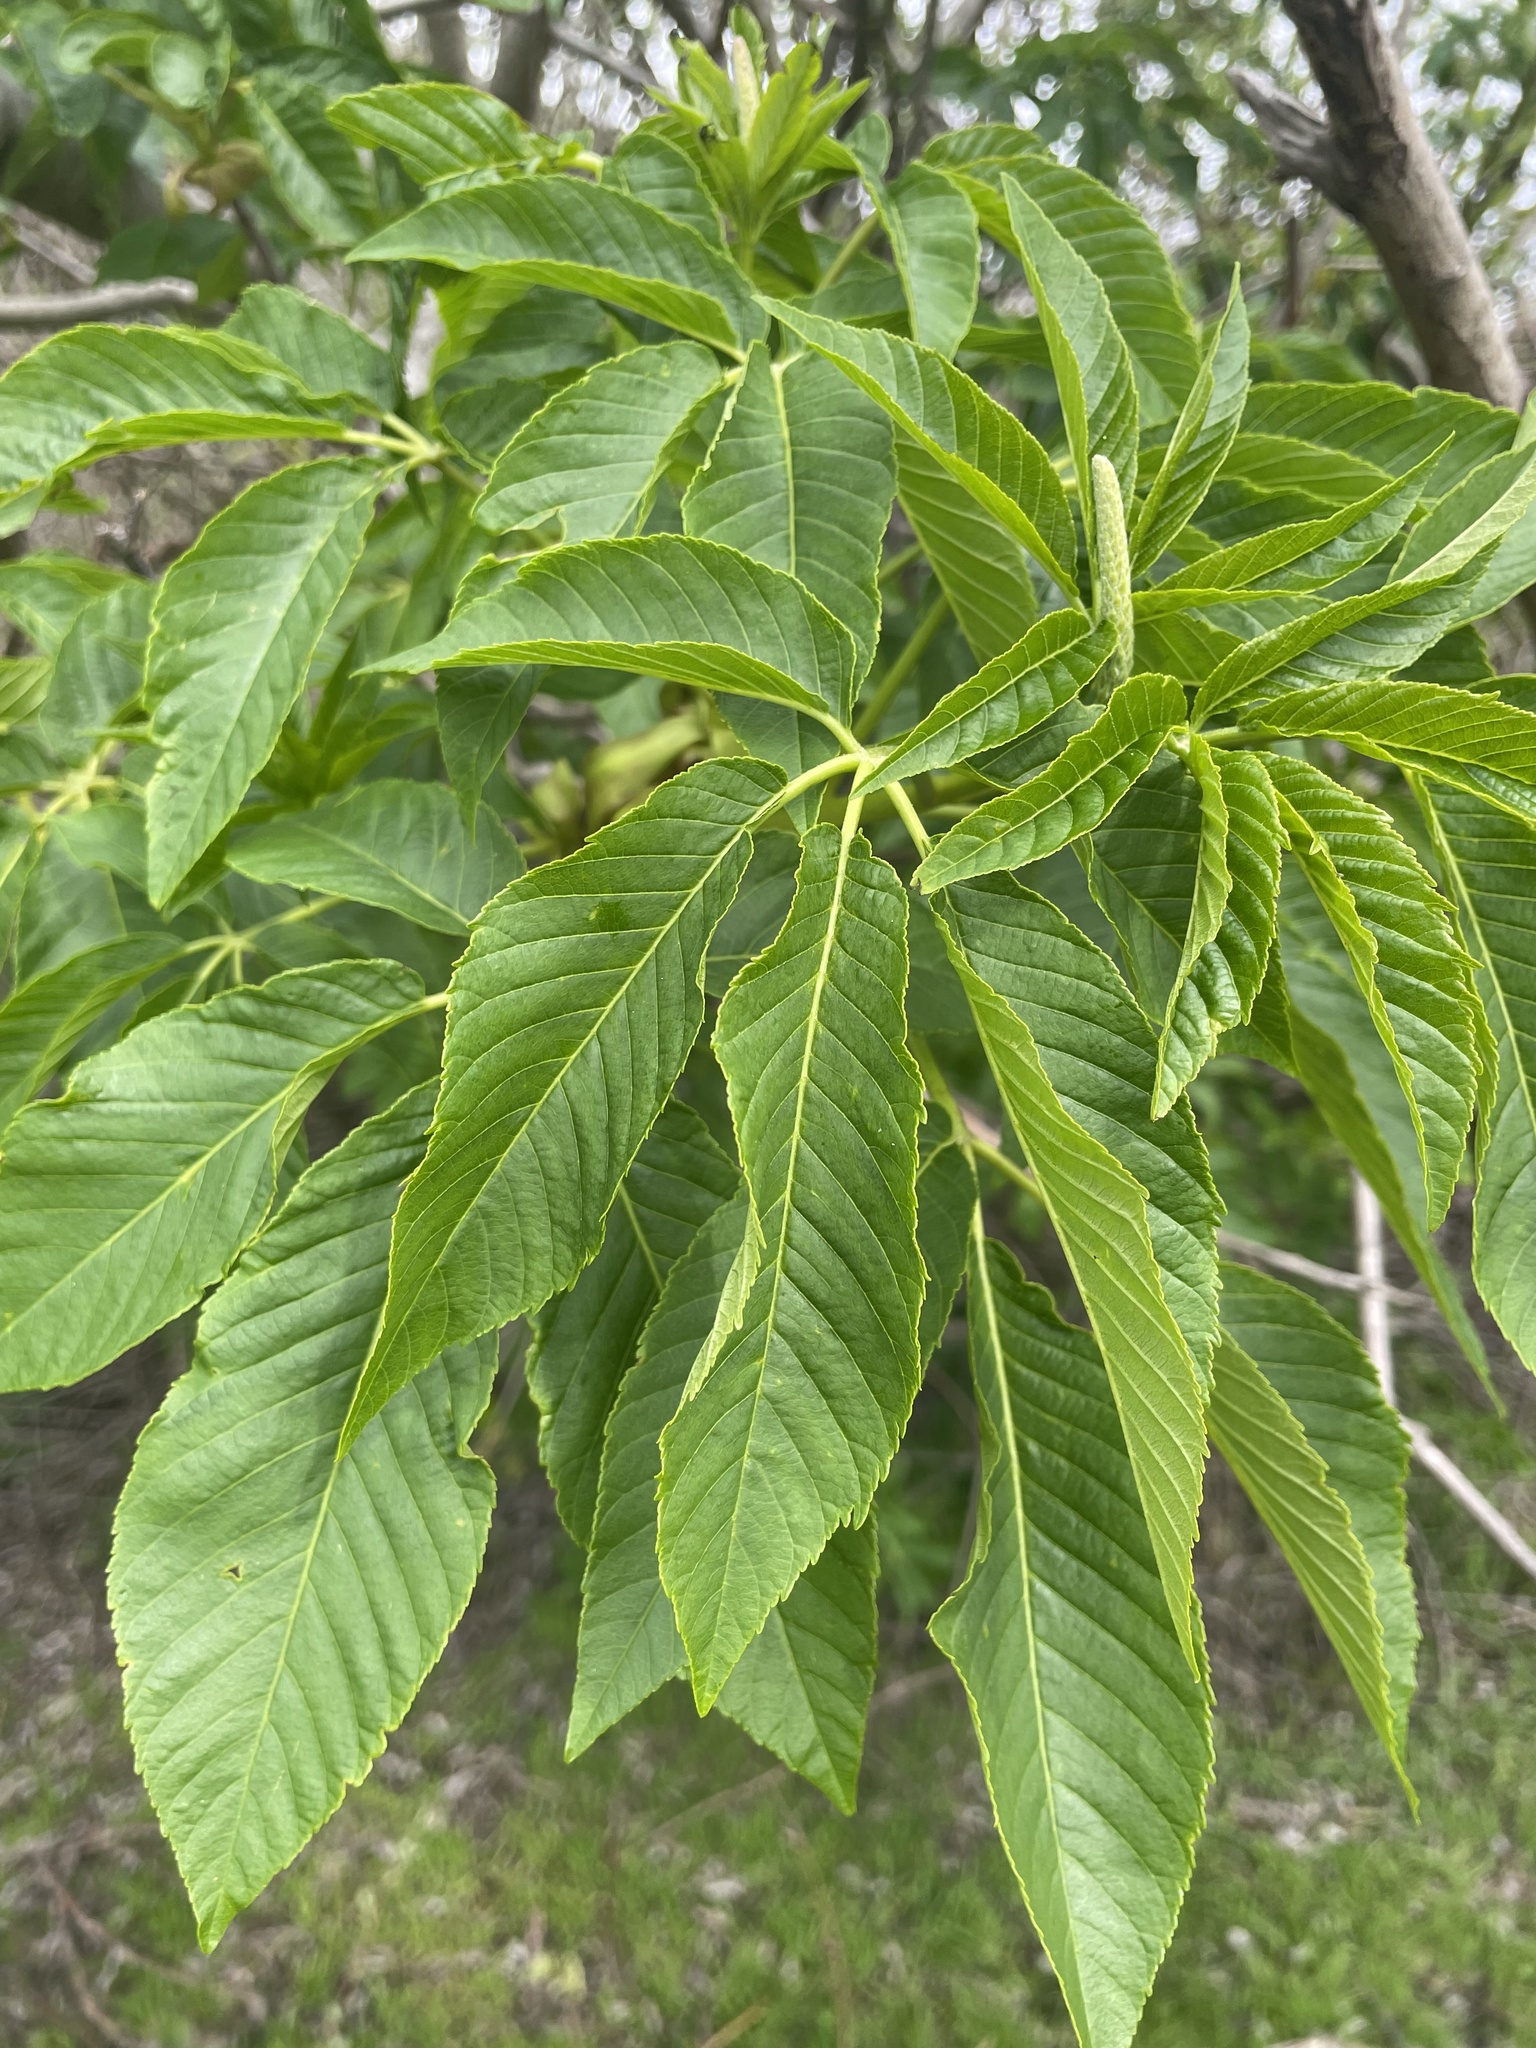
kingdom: Plantae
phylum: Tracheophyta
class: Magnoliopsida
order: Sapindales
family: Sapindaceae
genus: Aesculus
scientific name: Aesculus californica
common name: California buckeye
